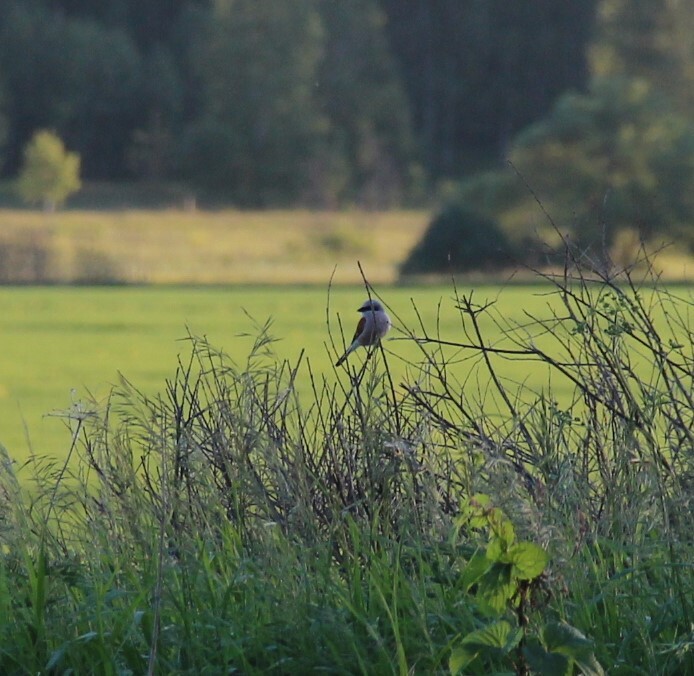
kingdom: Animalia
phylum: Chordata
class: Aves
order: Passeriformes
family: Laniidae
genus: Lanius
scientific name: Lanius collurio
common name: Red-backed shrike
